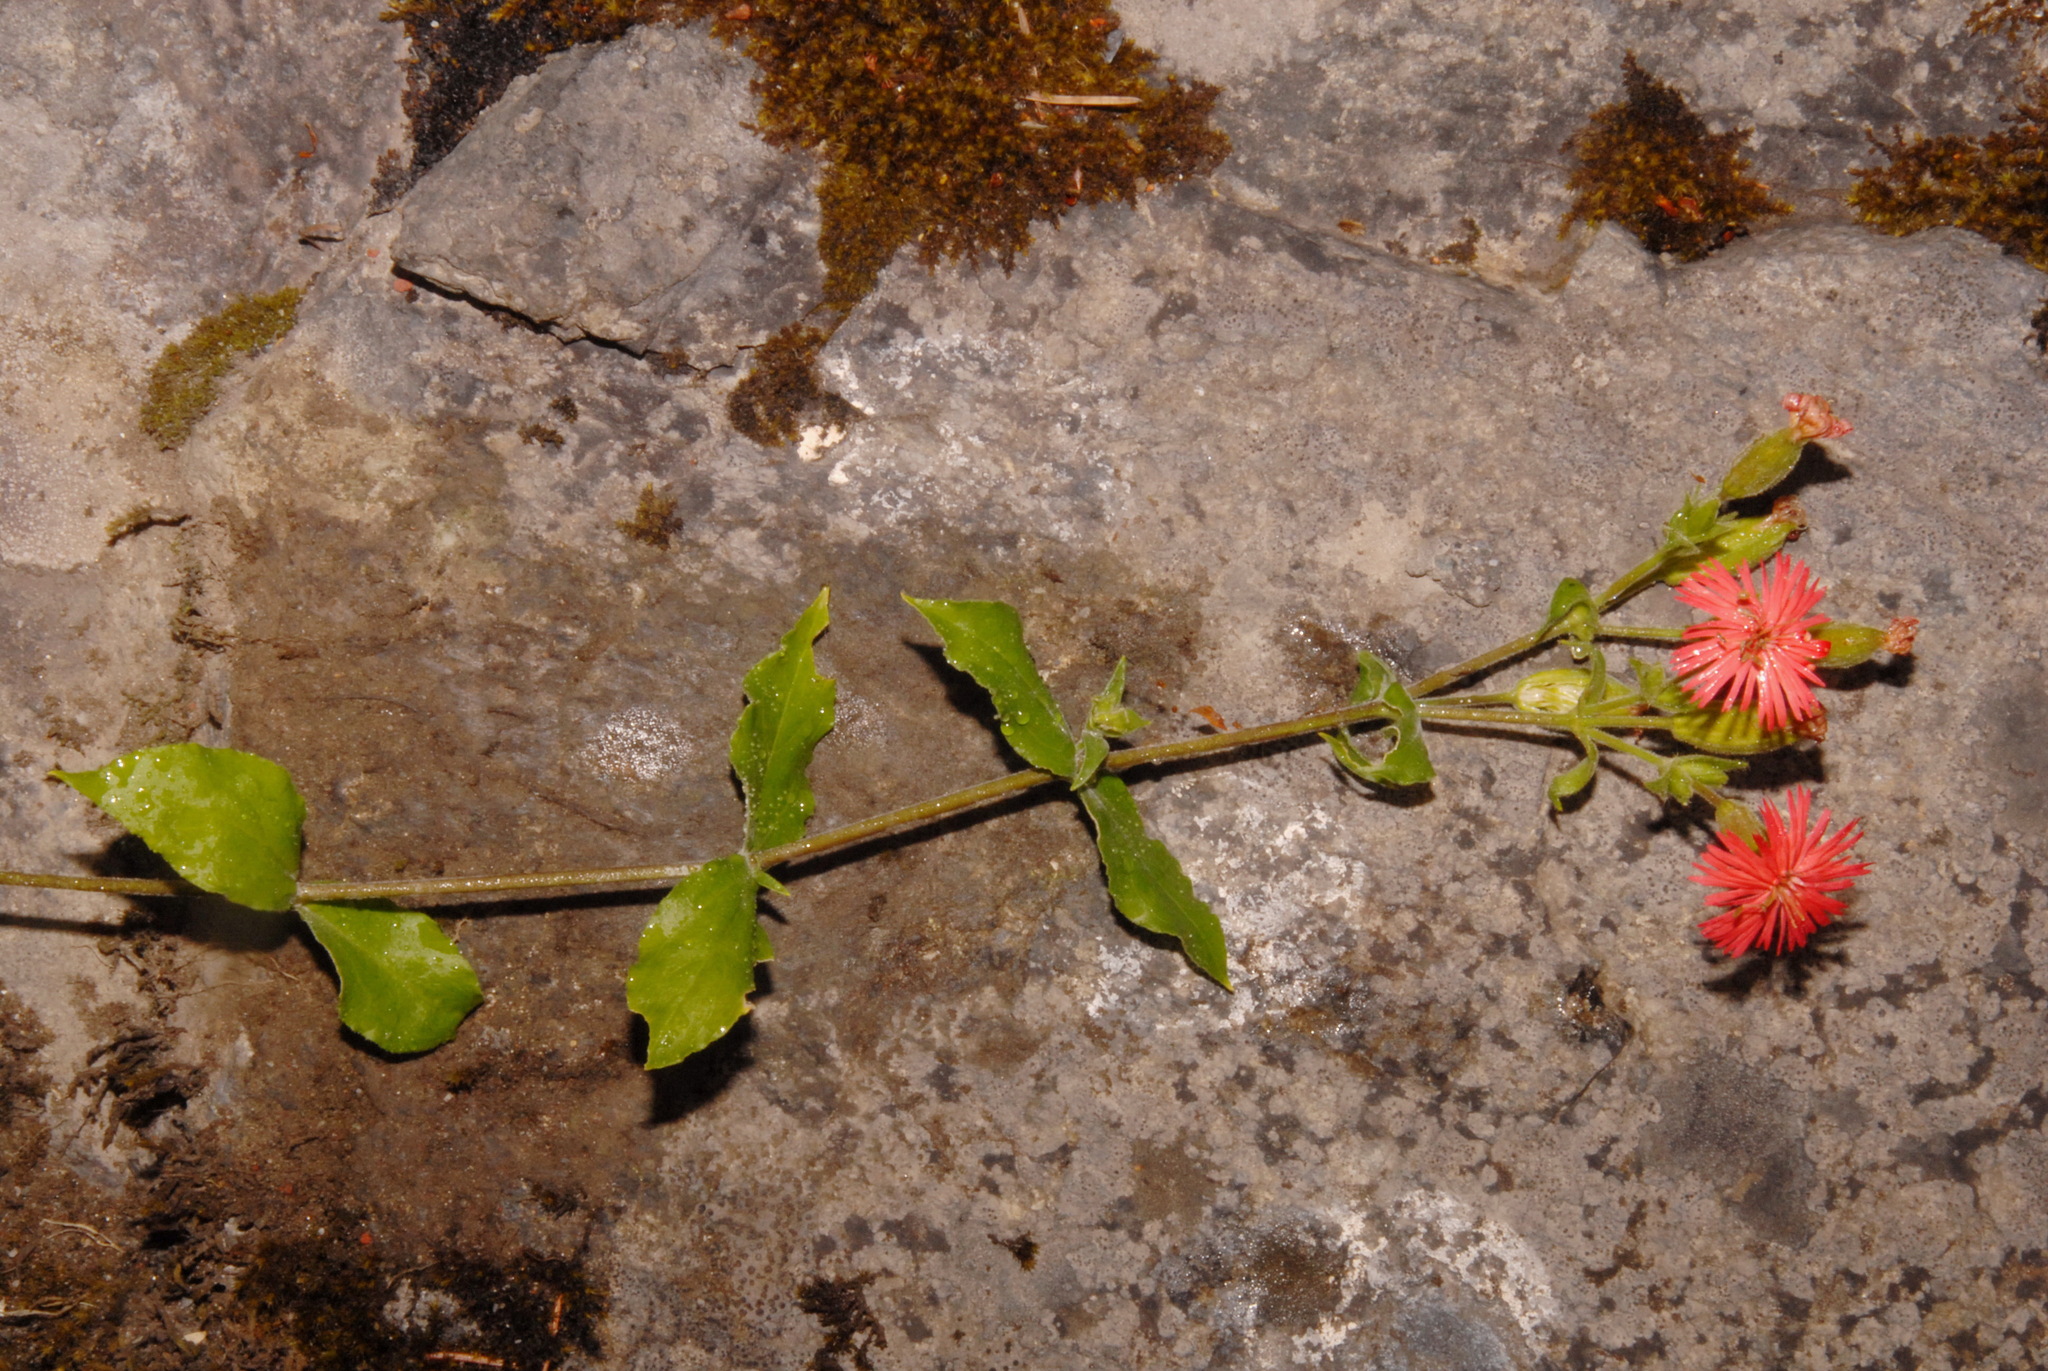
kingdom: Plantae
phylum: Tracheophyta
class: Magnoliopsida
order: Caryophyllales
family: Caryophyllaceae
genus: Silene
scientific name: Silene laciniata
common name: Indian-pink
